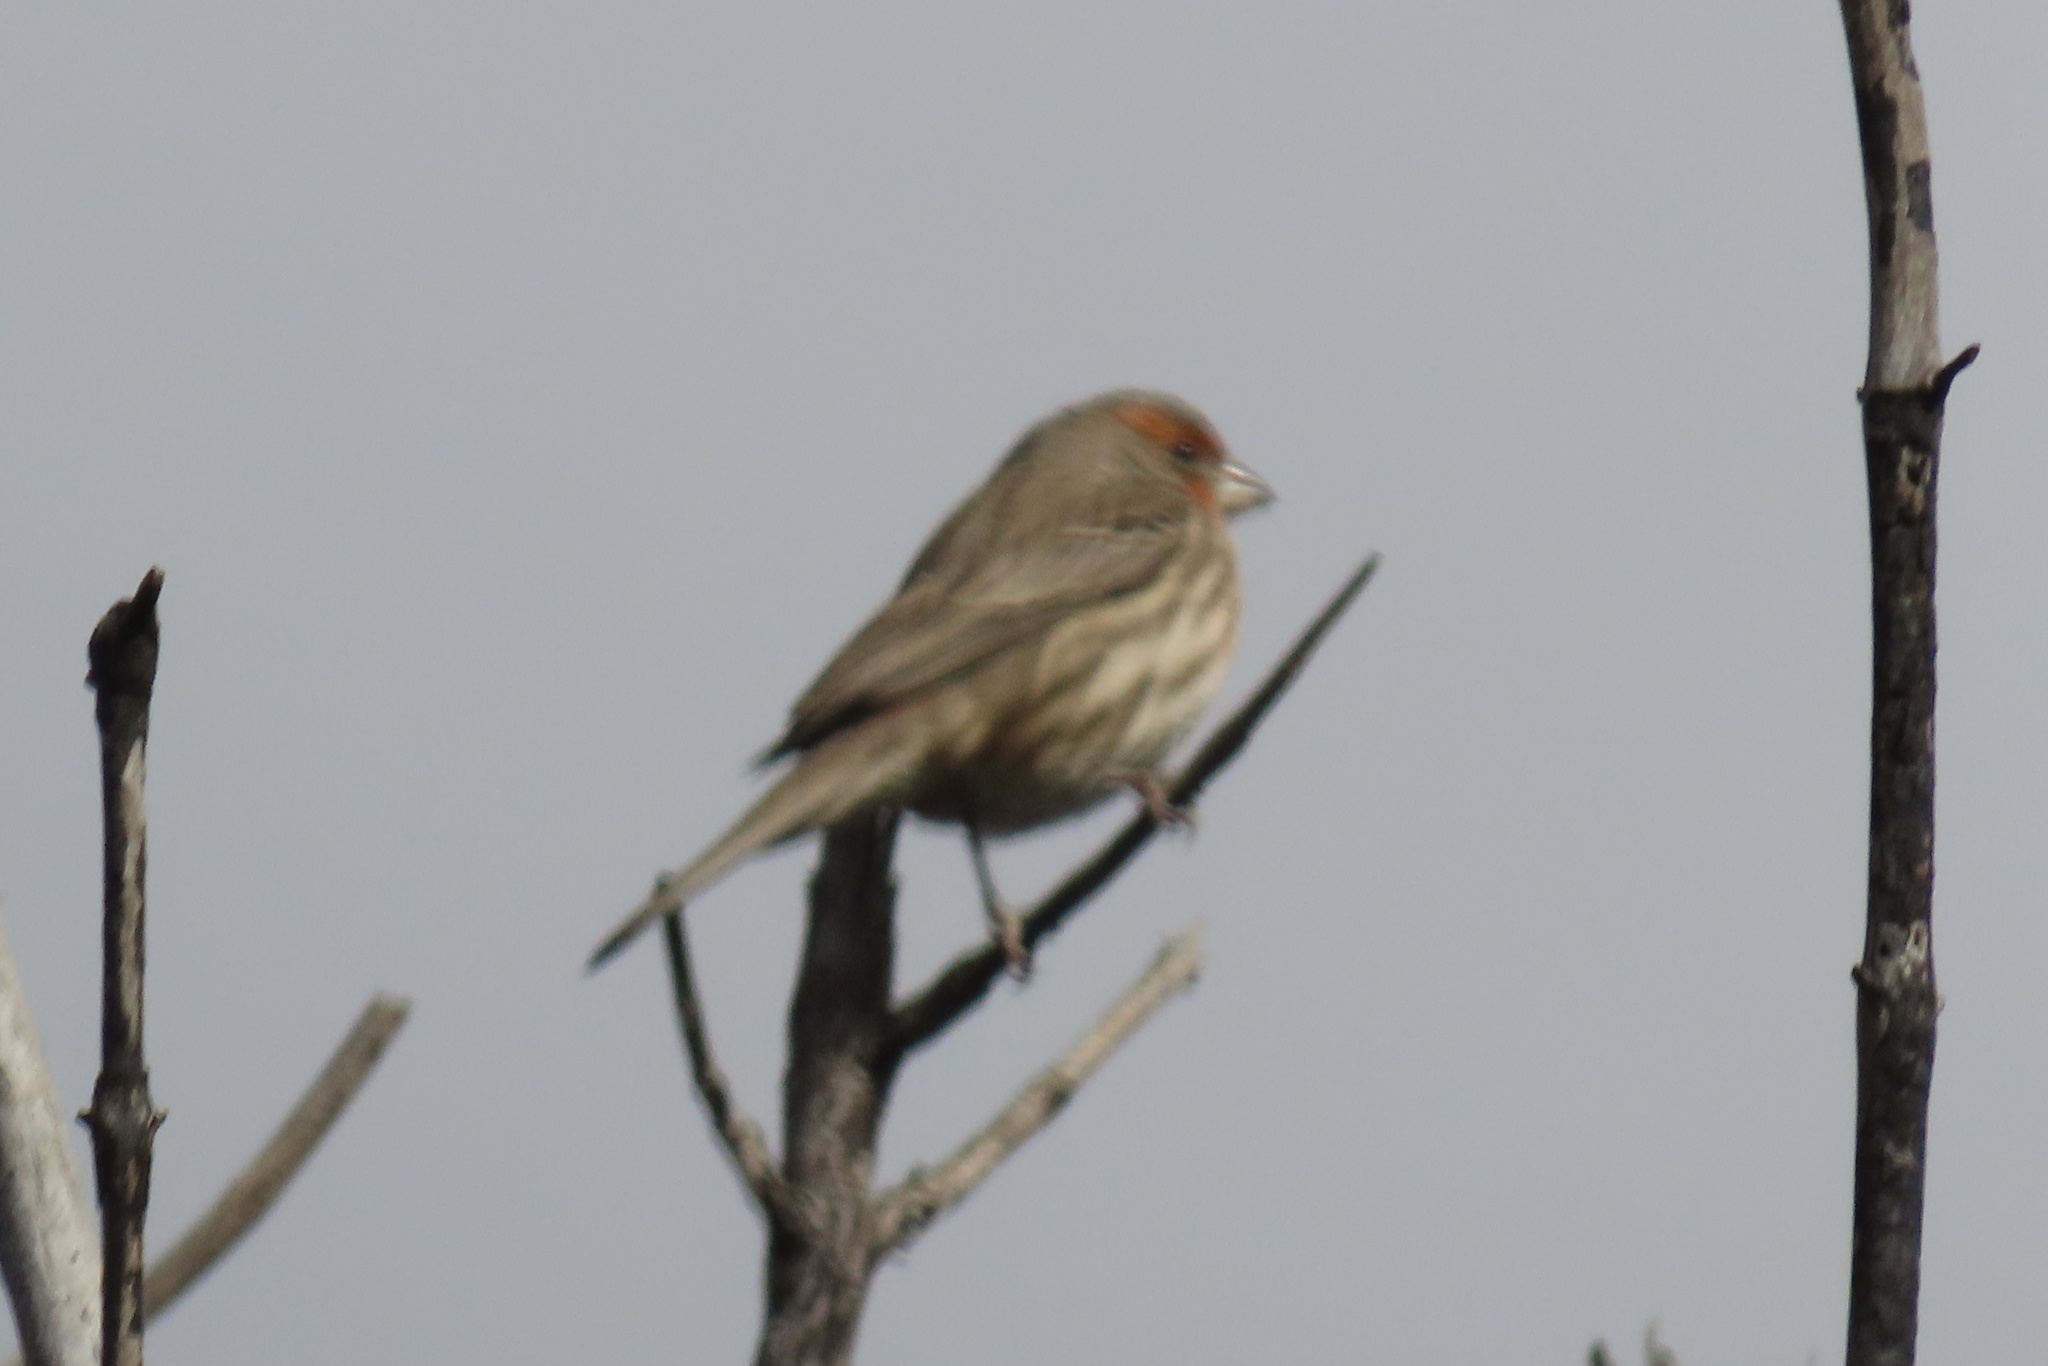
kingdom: Animalia
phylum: Chordata
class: Aves
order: Passeriformes
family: Fringillidae
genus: Haemorhous
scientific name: Haemorhous mexicanus
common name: House finch
